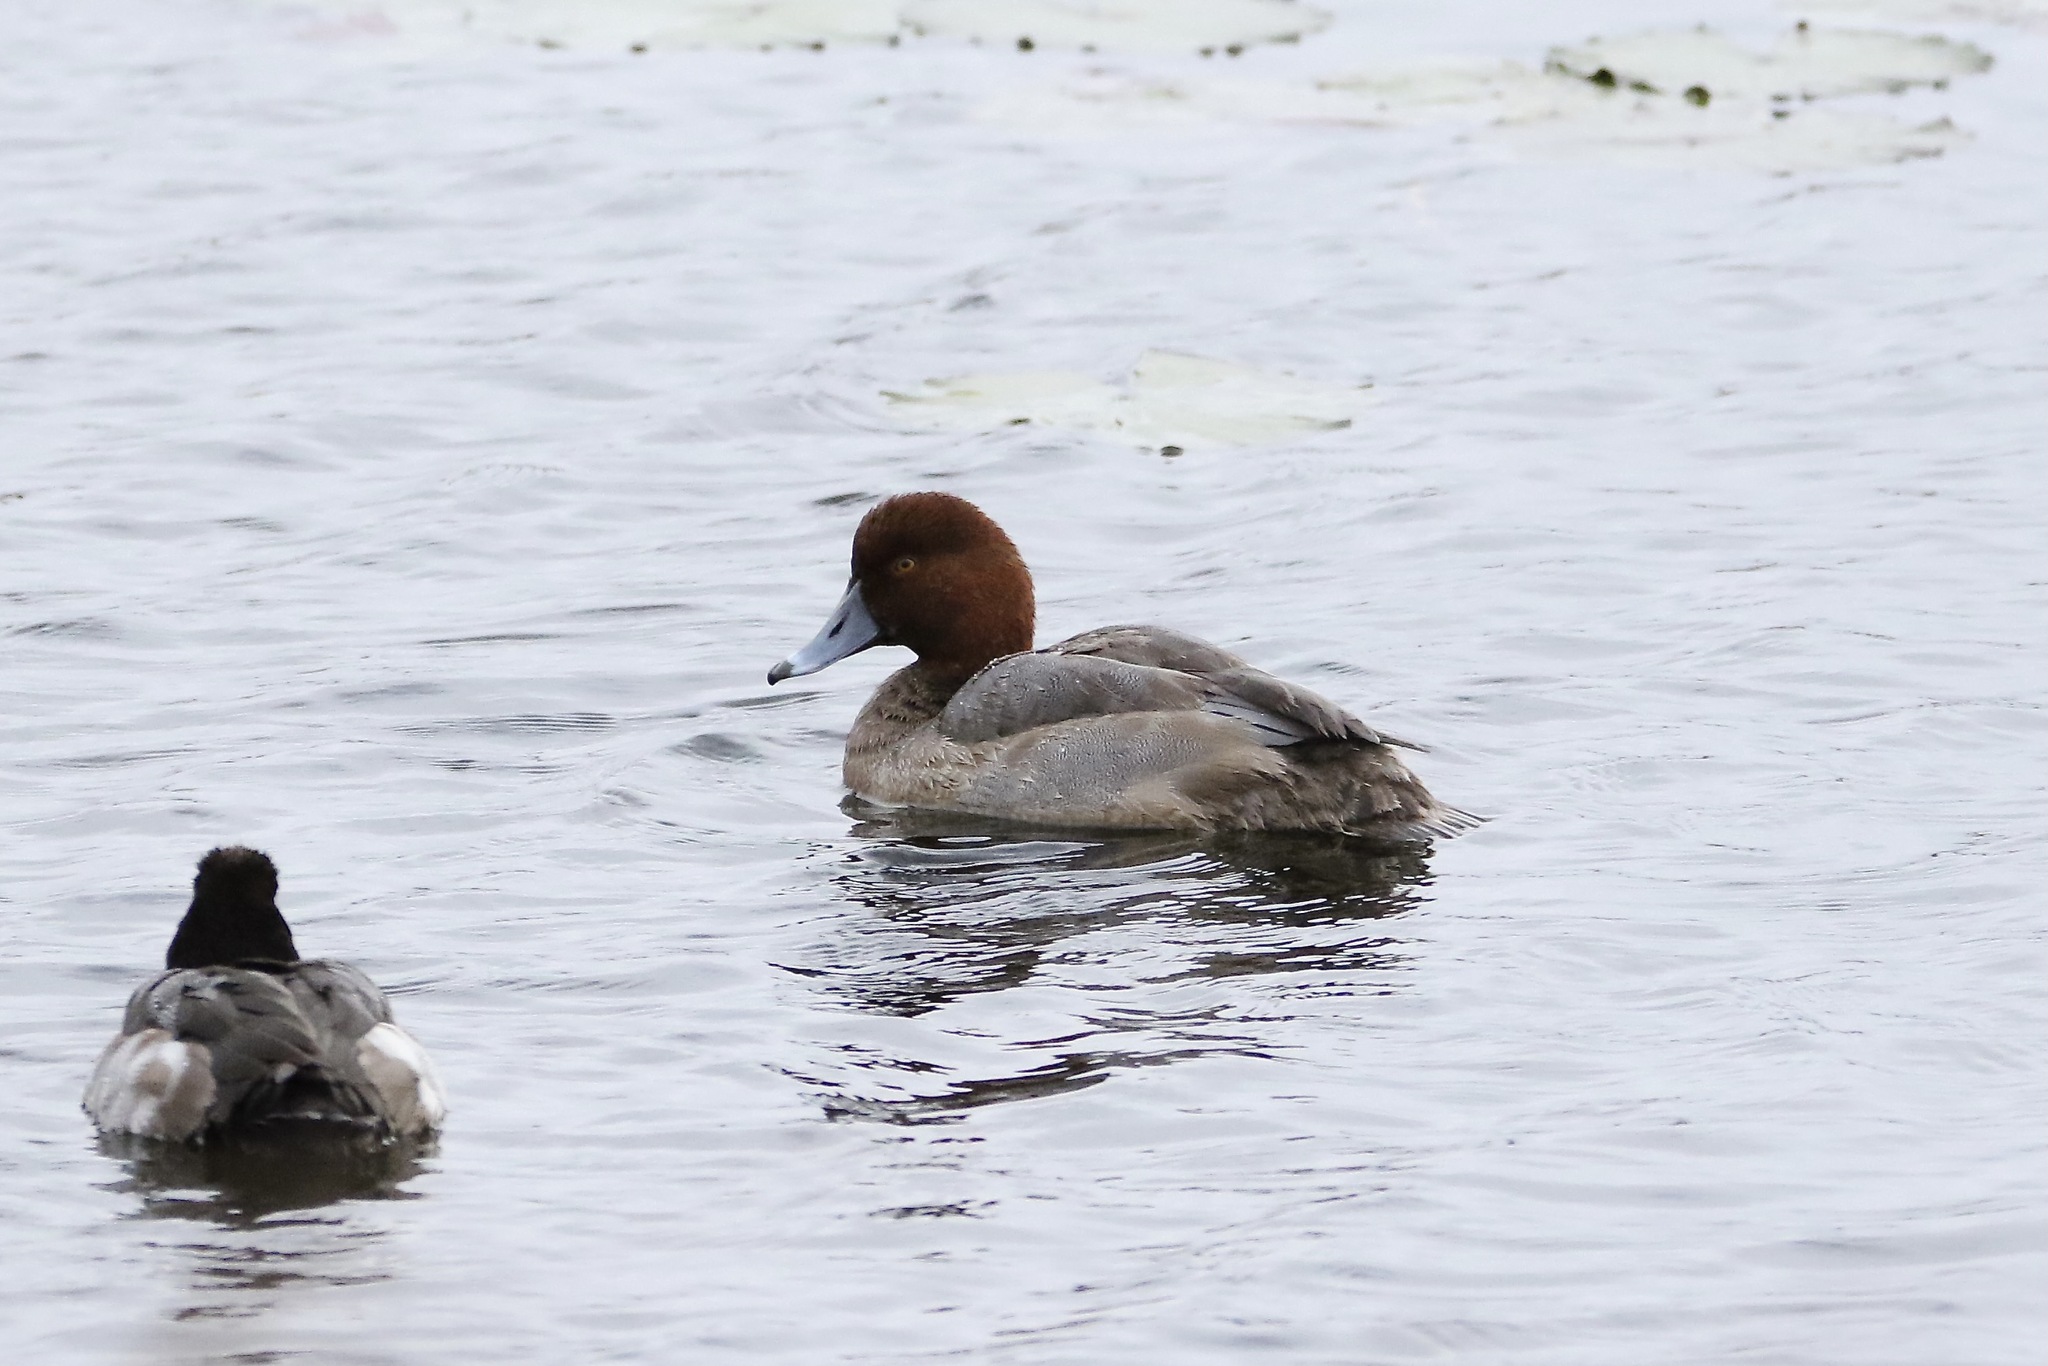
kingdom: Animalia
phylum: Chordata
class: Aves
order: Anseriformes
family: Anatidae
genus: Aythya
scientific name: Aythya americana
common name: Redhead
